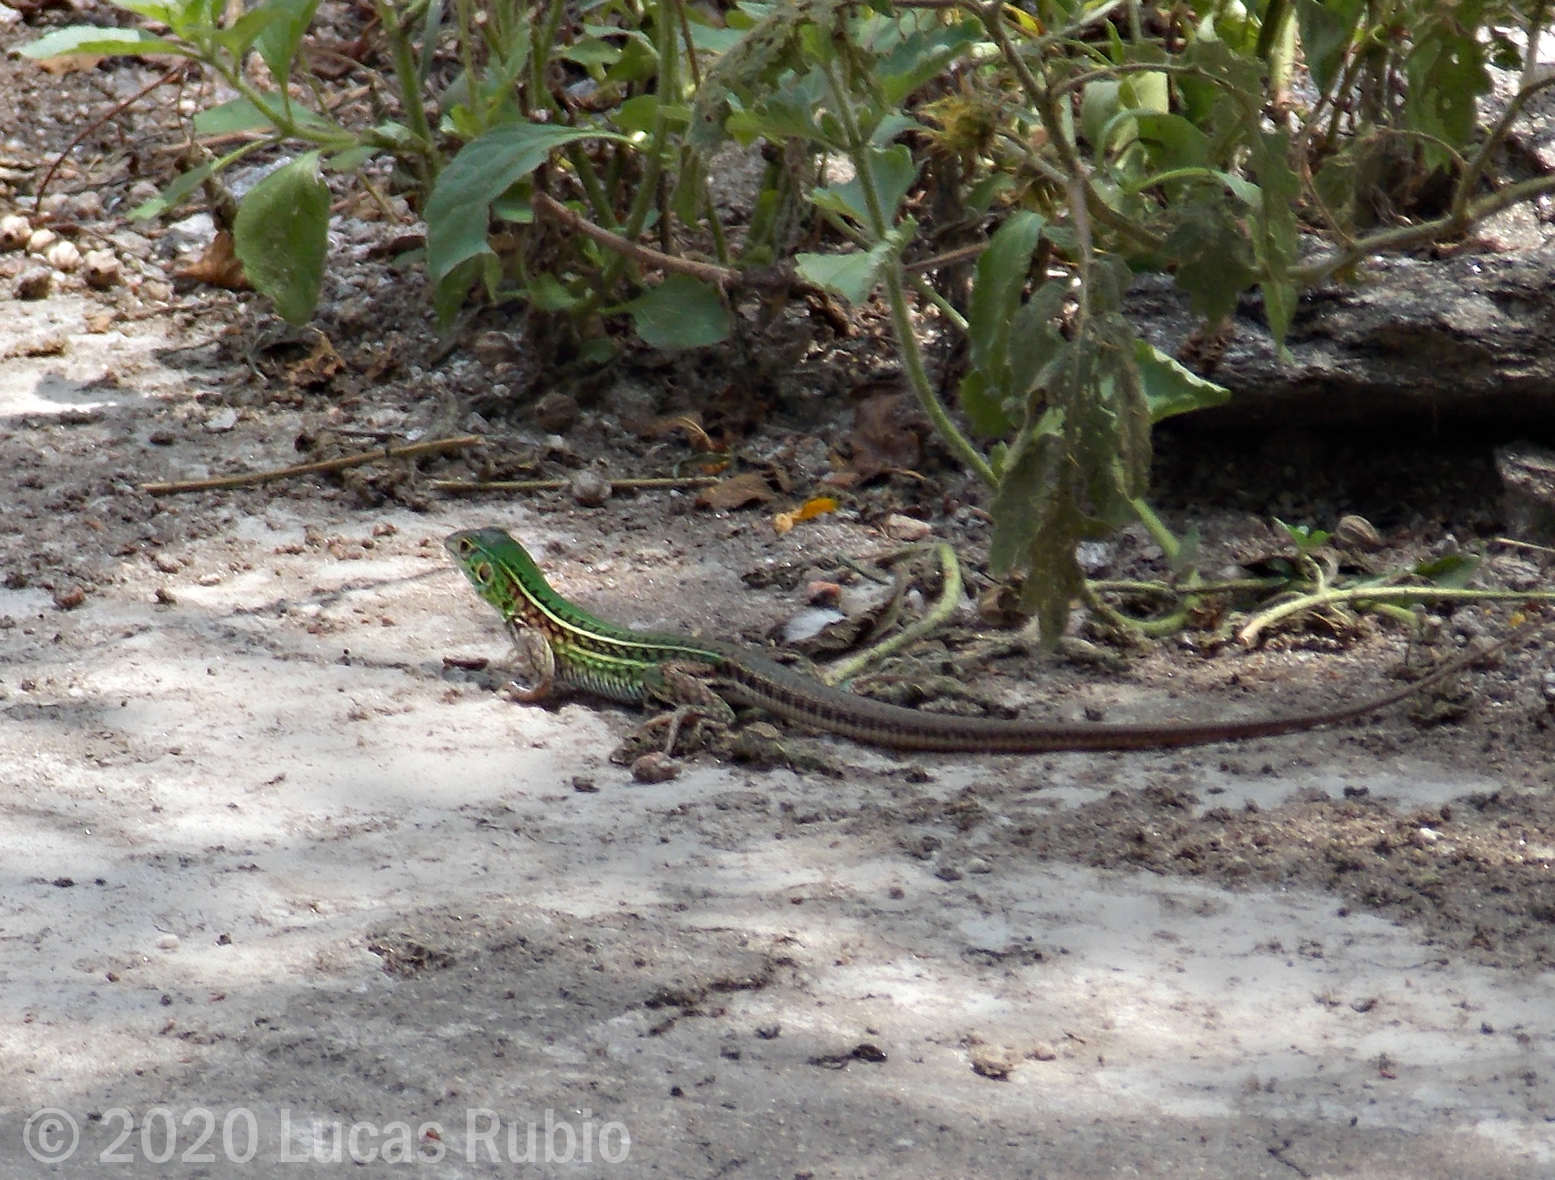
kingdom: Animalia
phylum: Chordata
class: Squamata
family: Teiidae
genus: Teius
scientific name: Teius suquiensis
